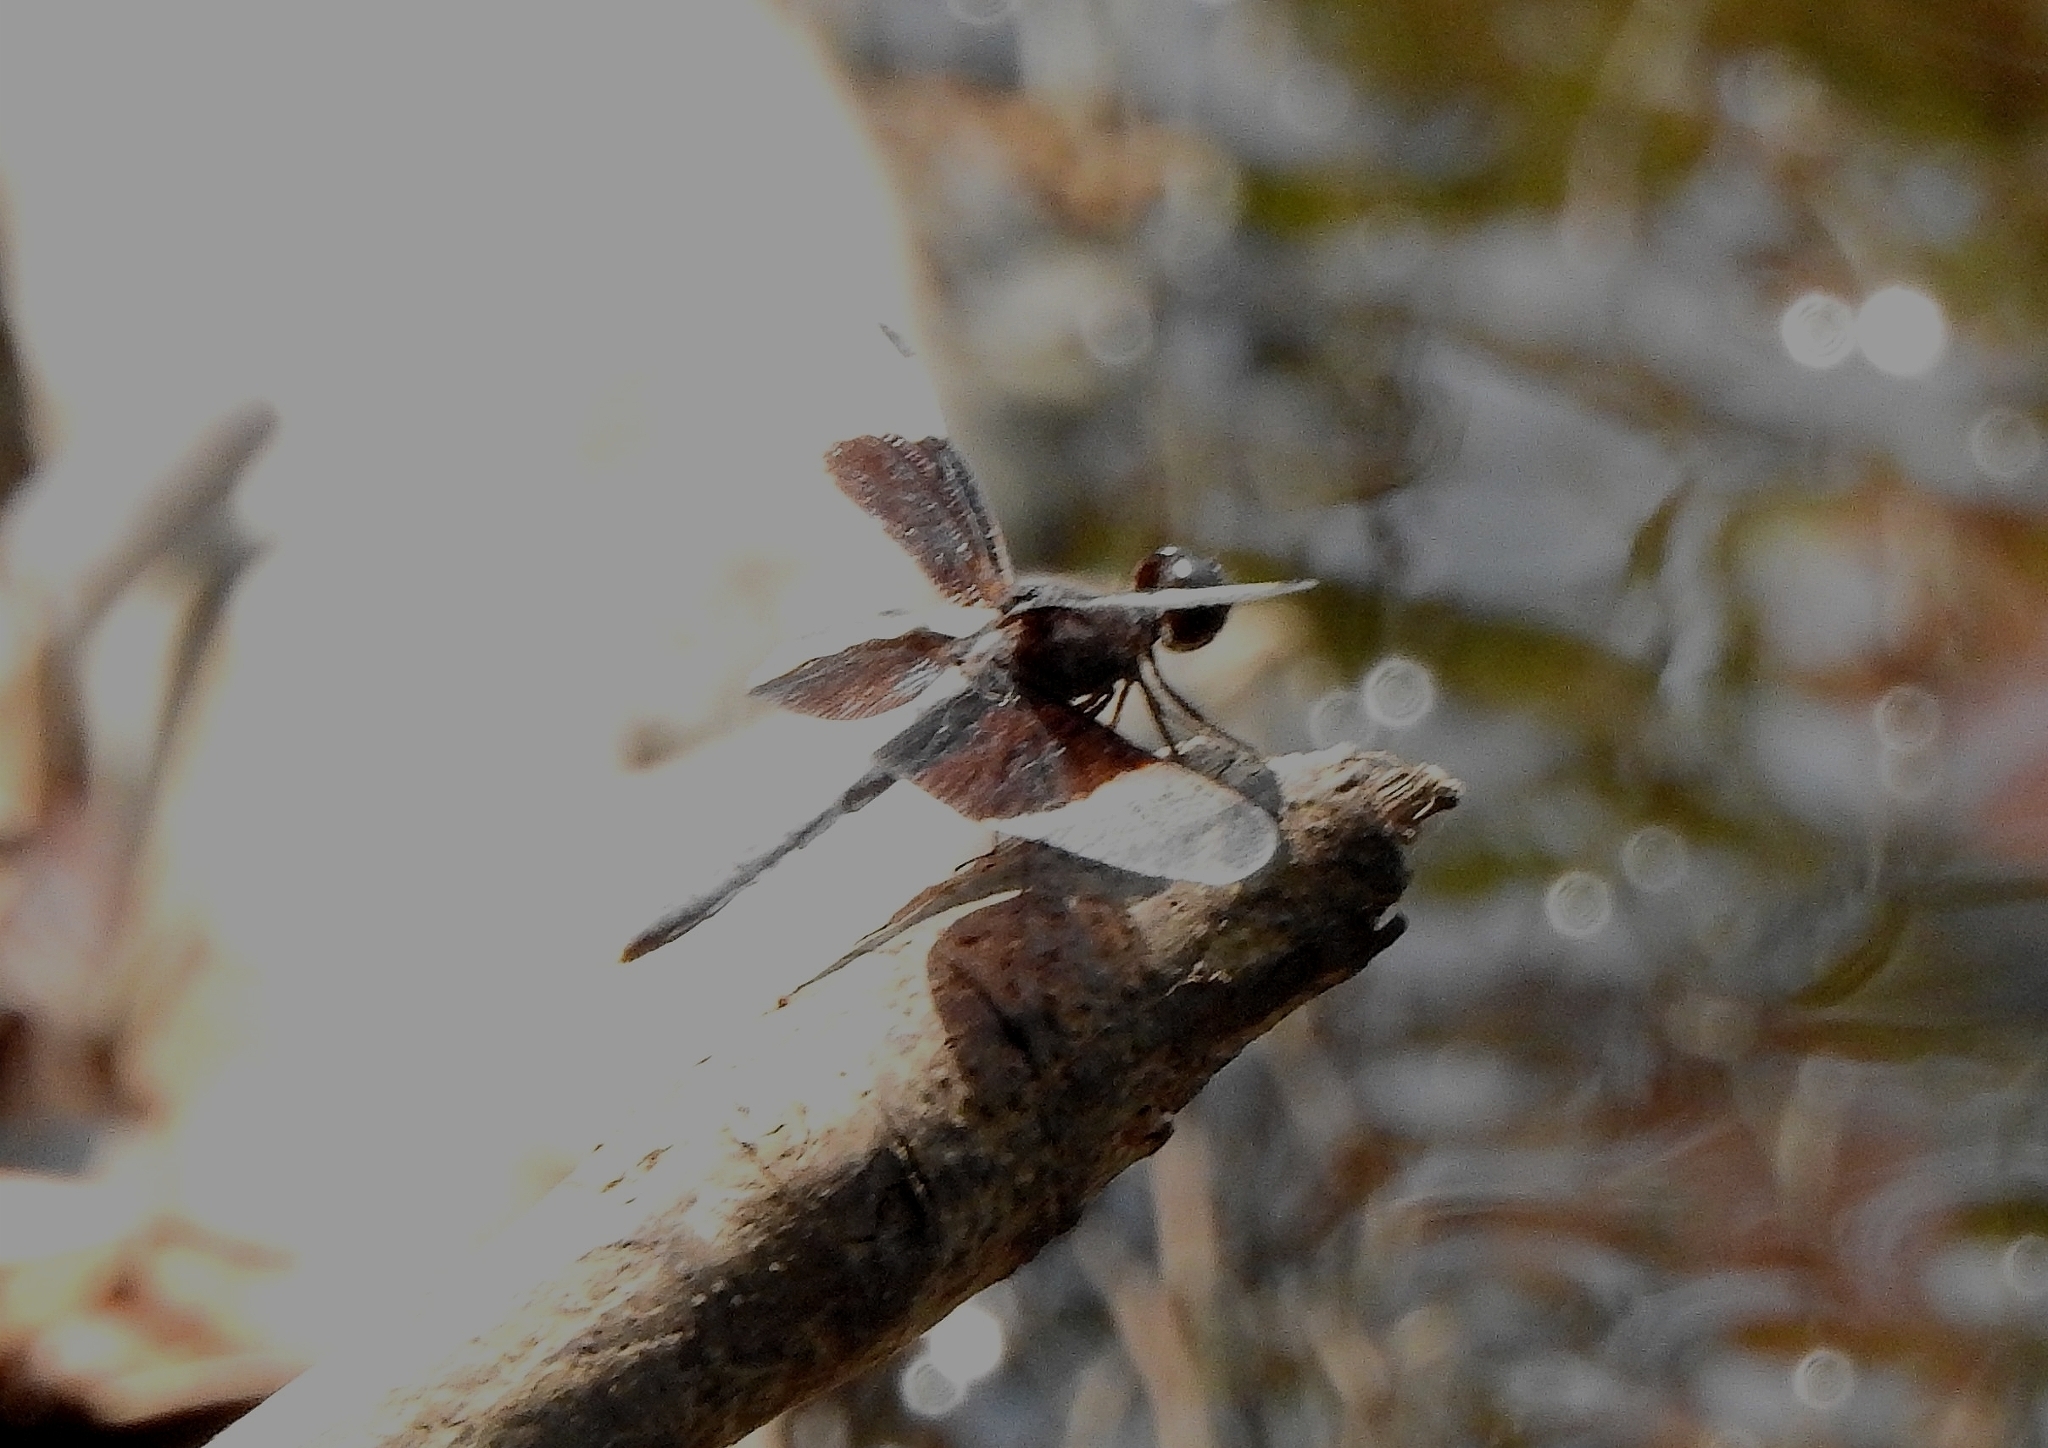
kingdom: Animalia
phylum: Arthropoda
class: Insecta
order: Odonata
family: Libellulidae
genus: Neurothemis
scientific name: Neurothemis tullia
